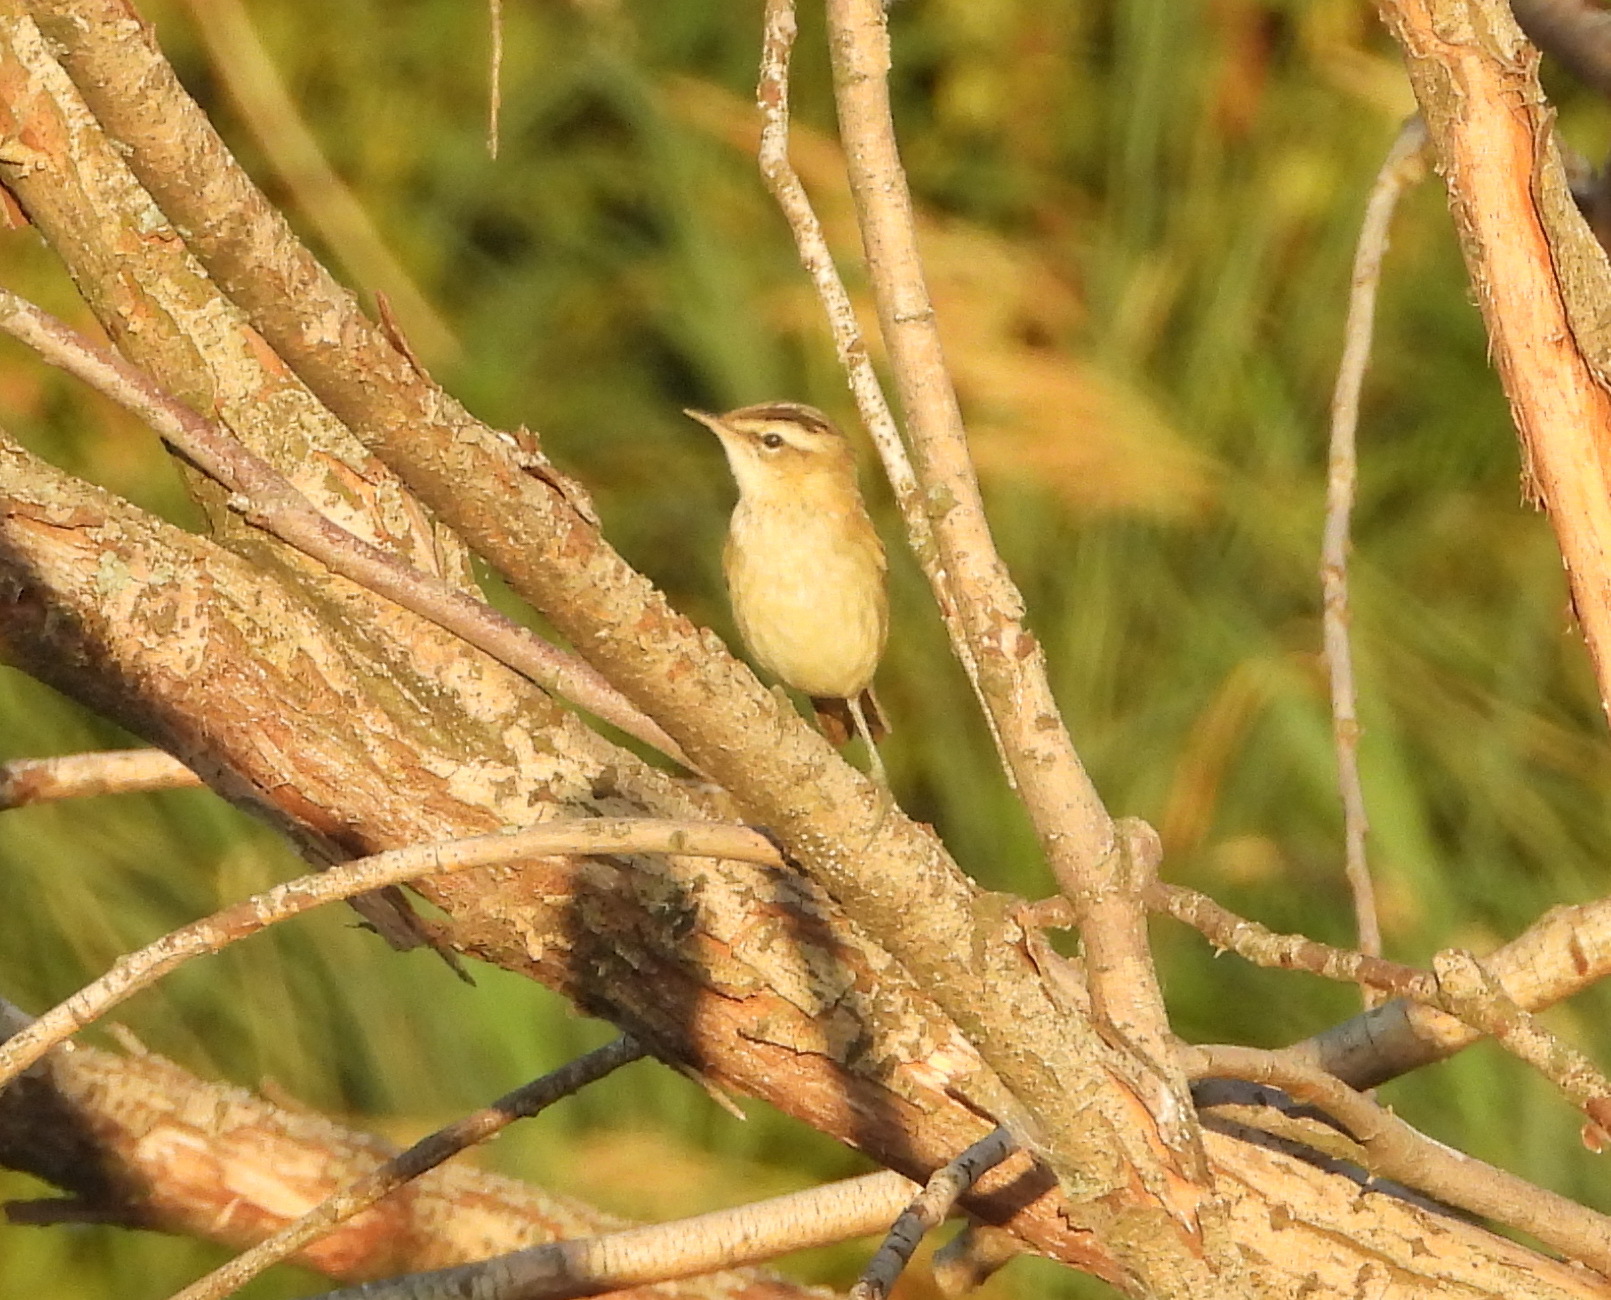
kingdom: Animalia
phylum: Chordata
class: Aves
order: Passeriformes
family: Acrocephalidae
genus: Acrocephalus
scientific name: Acrocephalus schoenobaenus
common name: Sedge warbler
